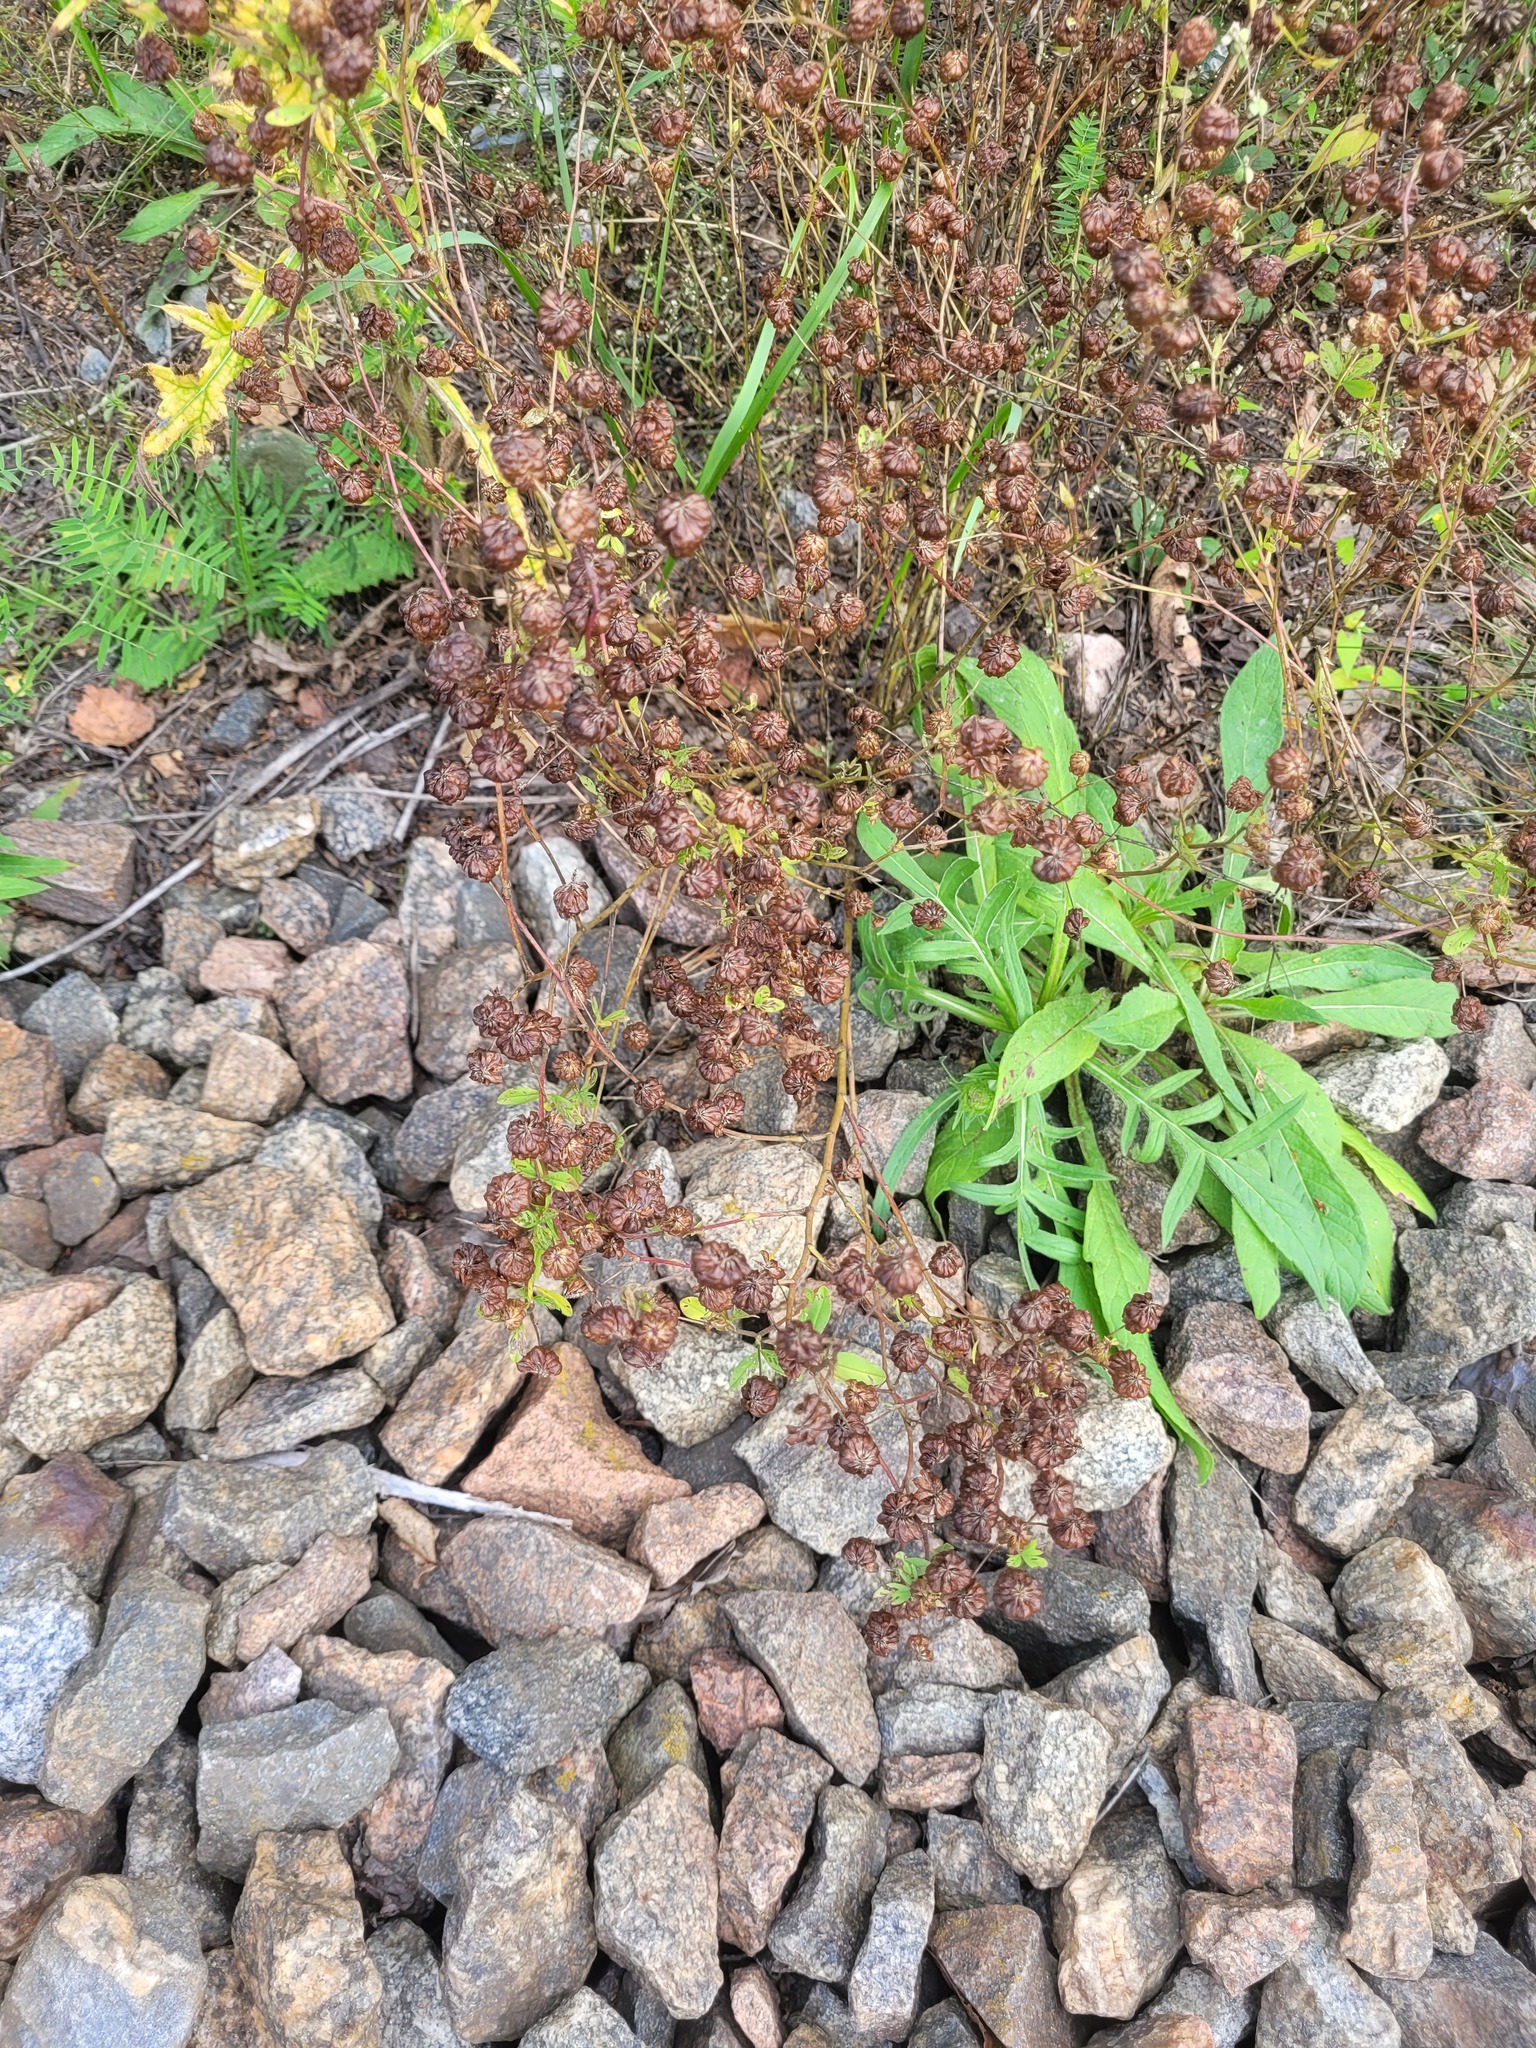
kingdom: Plantae
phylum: Tracheophyta
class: Magnoliopsida
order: Fabales
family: Fabaceae
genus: Trifolium
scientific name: Trifolium aureum
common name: Golden clover
